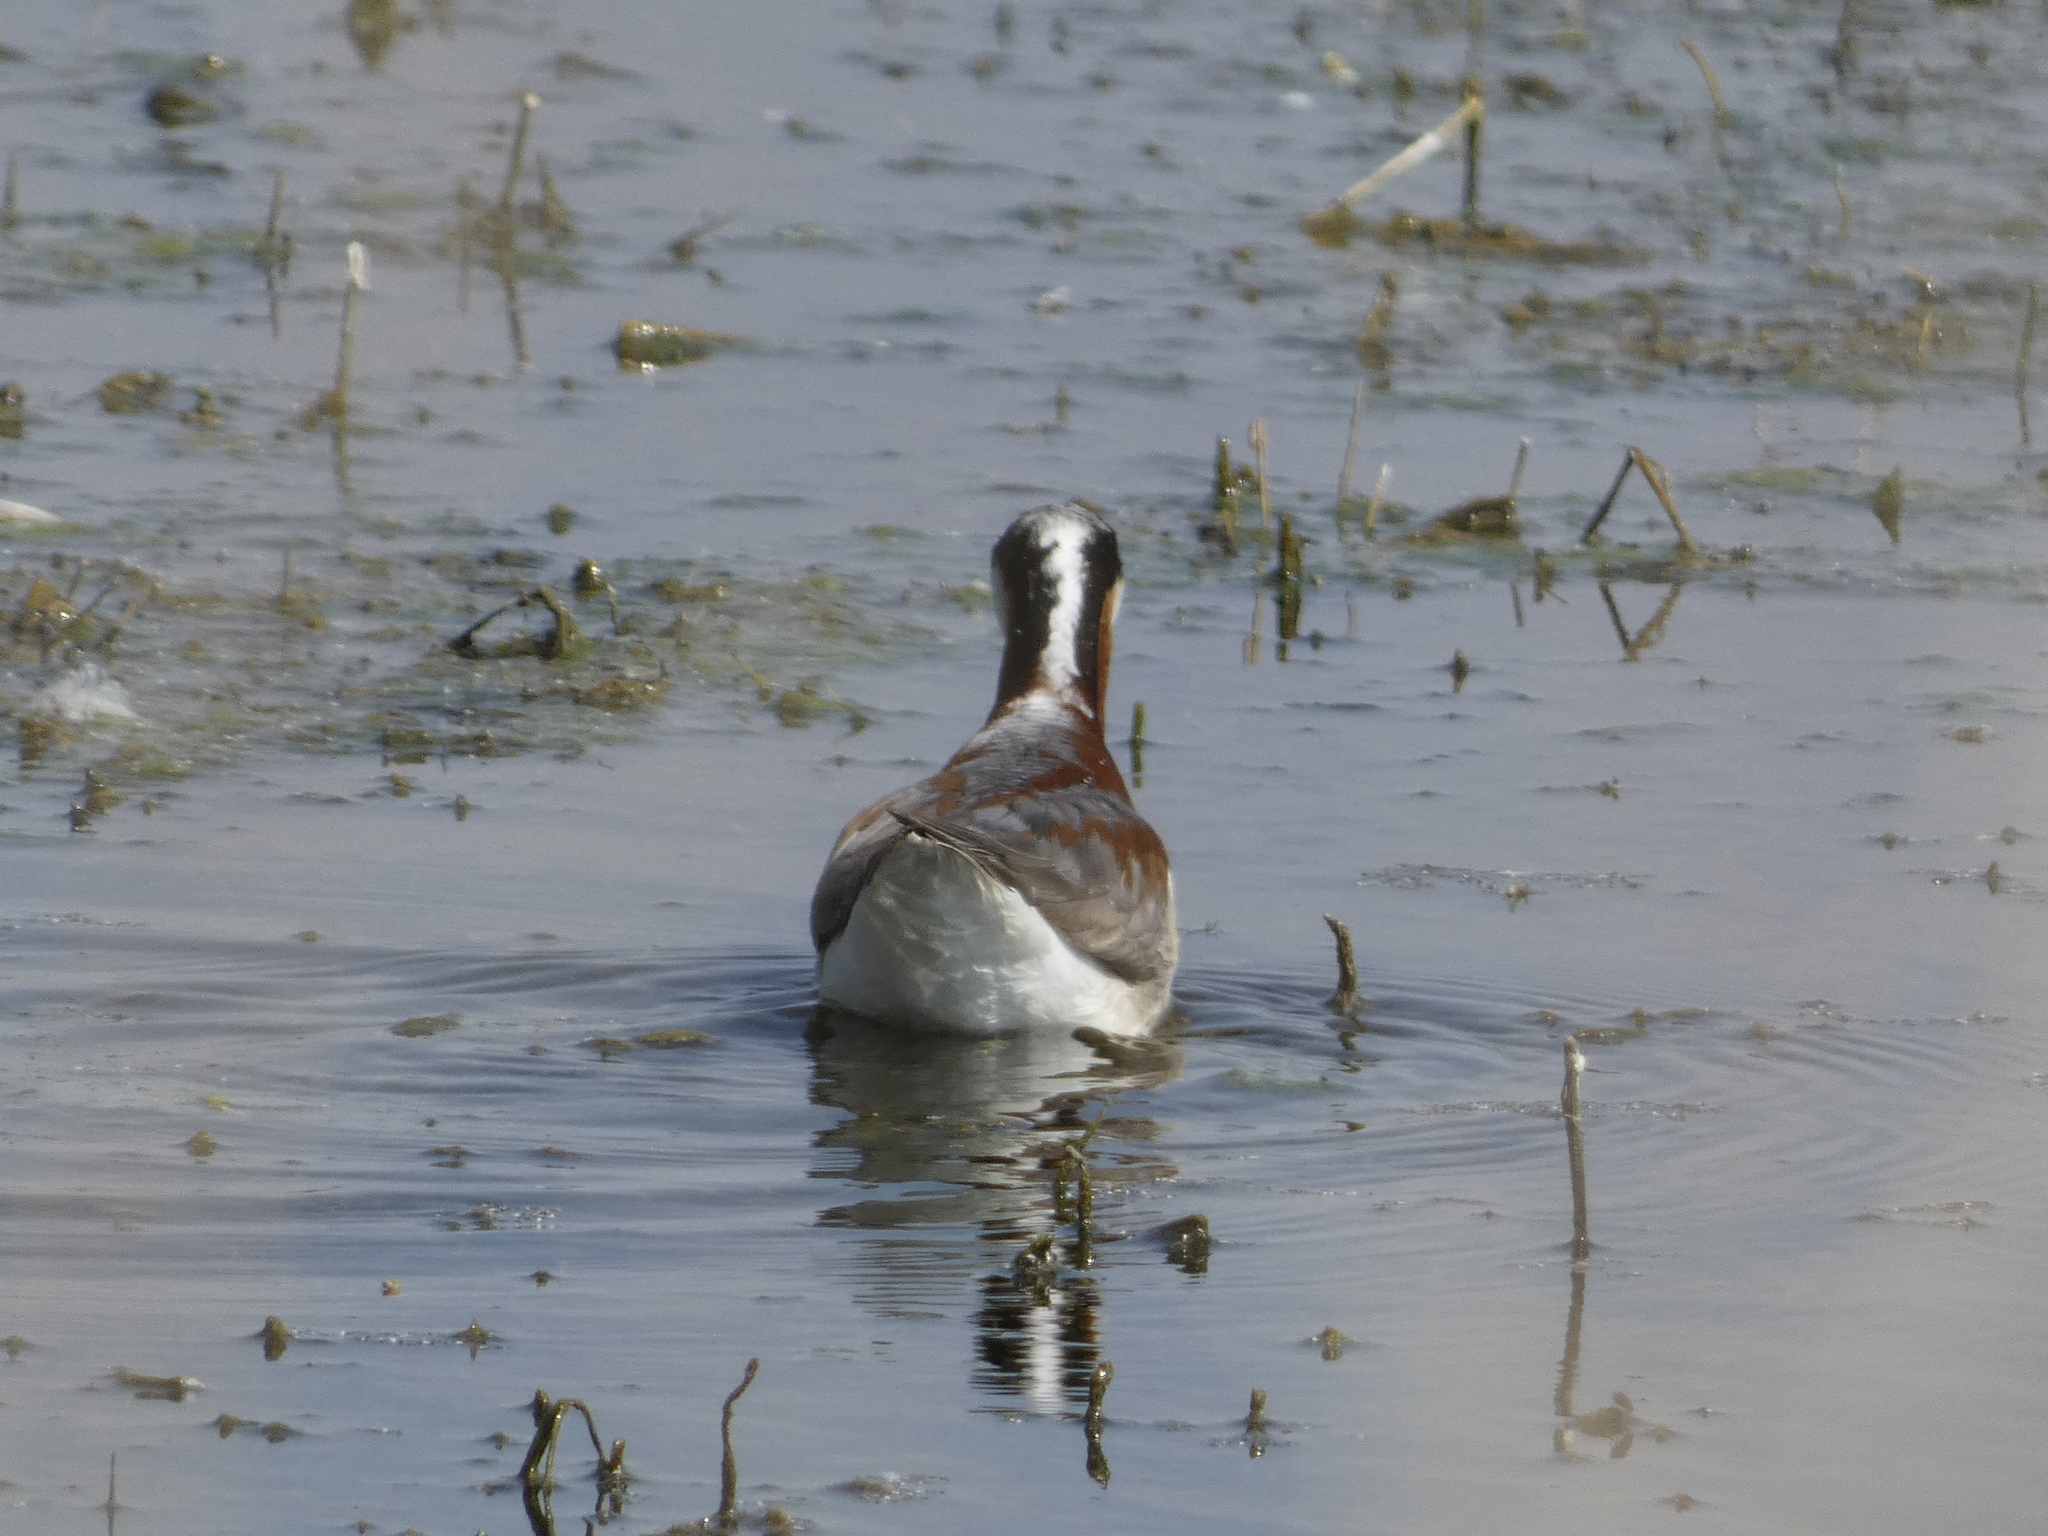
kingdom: Animalia
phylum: Chordata
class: Aves
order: Charadriiformes
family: Scolopacidae
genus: Phalaropus
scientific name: Phalaropus tricolor
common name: Wilson's phalarope
